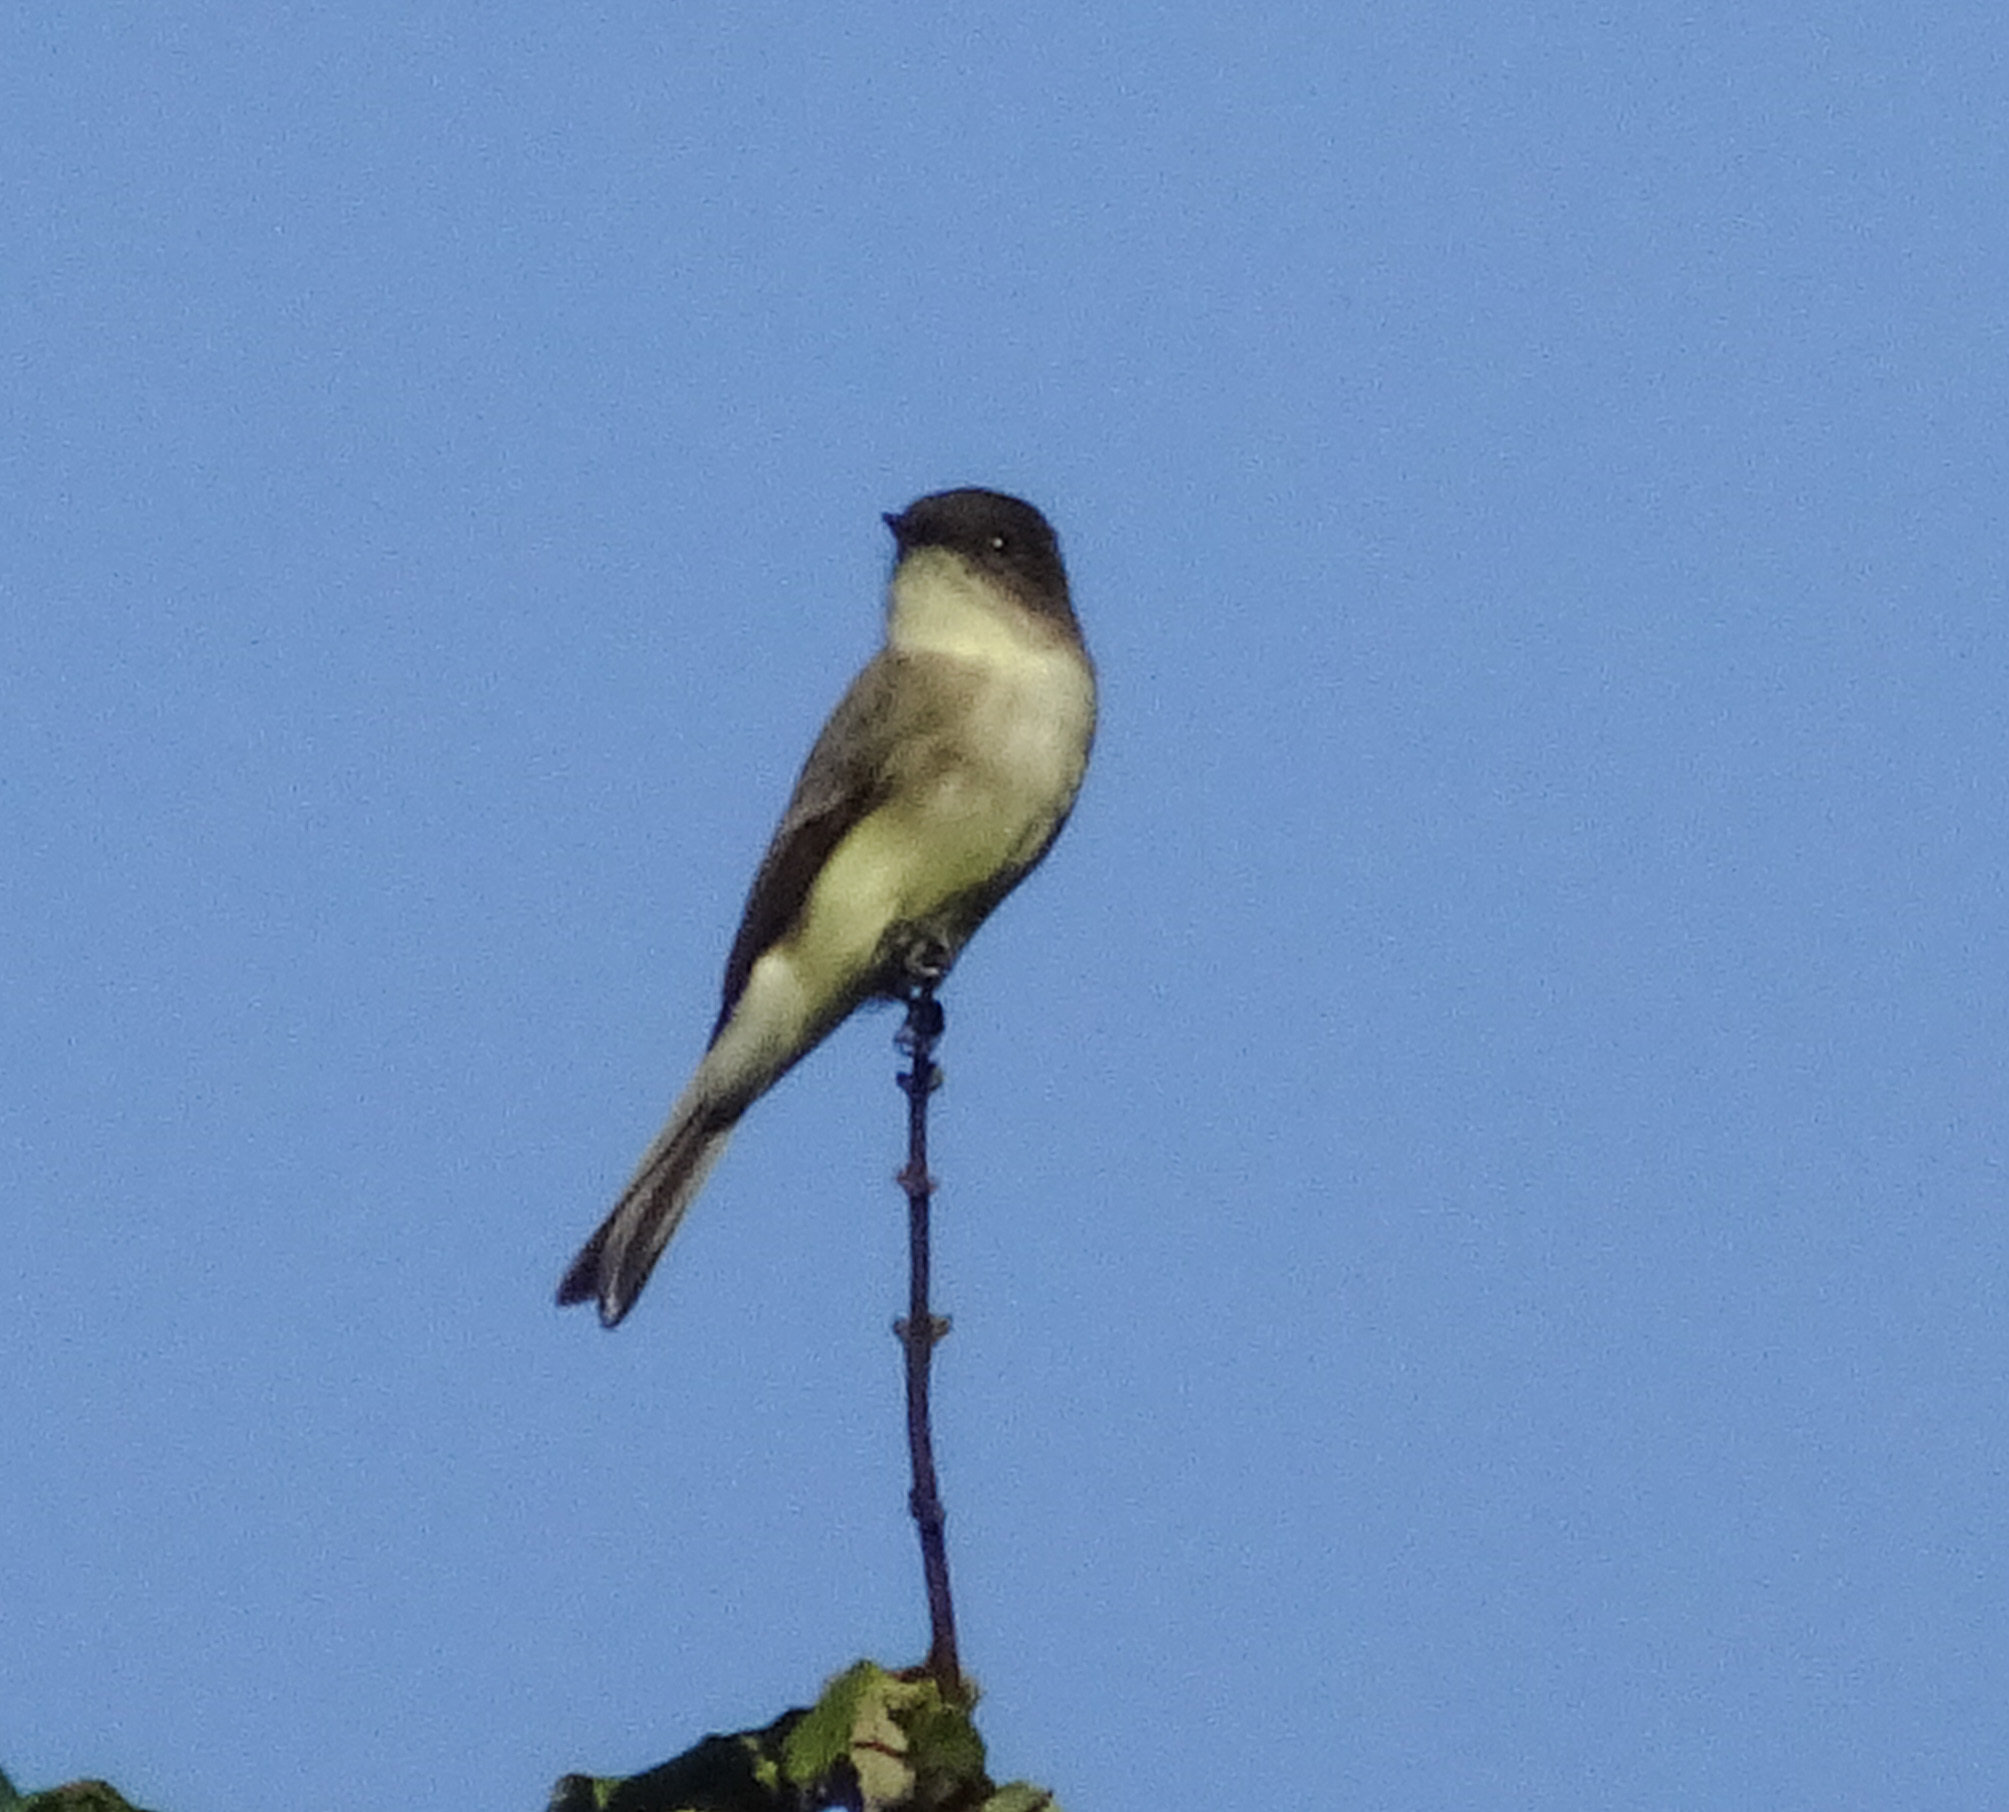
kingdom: Animalia
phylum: Chordata
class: Aves
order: Passeriformes
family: Tyrannidae
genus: Sayornis
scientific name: Sayornis phoebe
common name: Eastern phoebe
